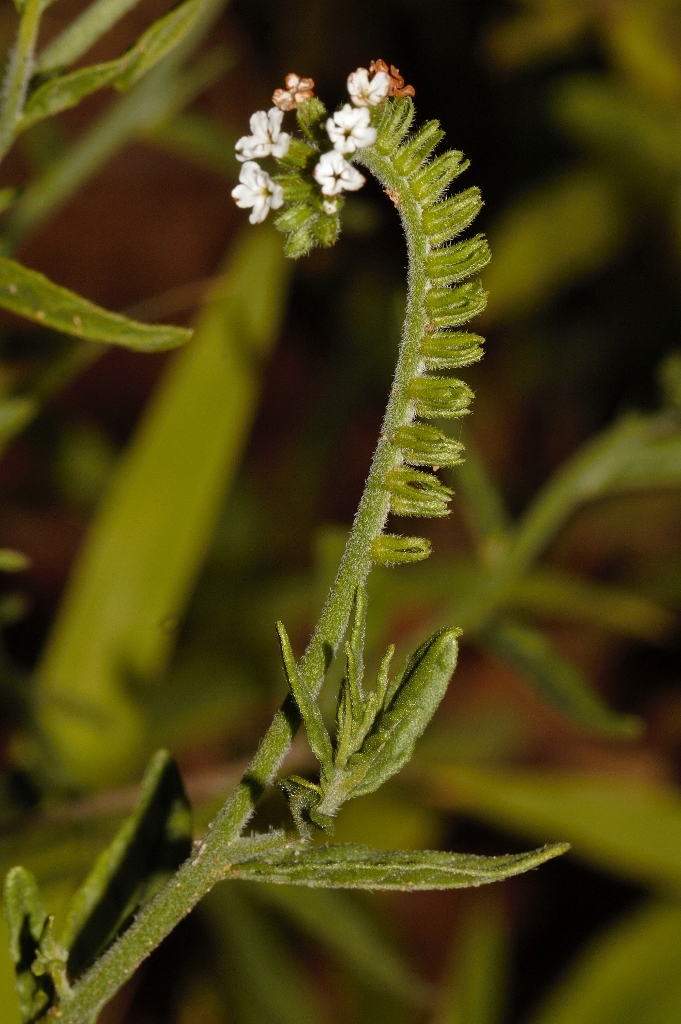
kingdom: Plantae
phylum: Tracheophyta
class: Magnoliopsida
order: Boraginales
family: Heliotropiaceae
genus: Heliotropium
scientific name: Heliotropium steudneri
